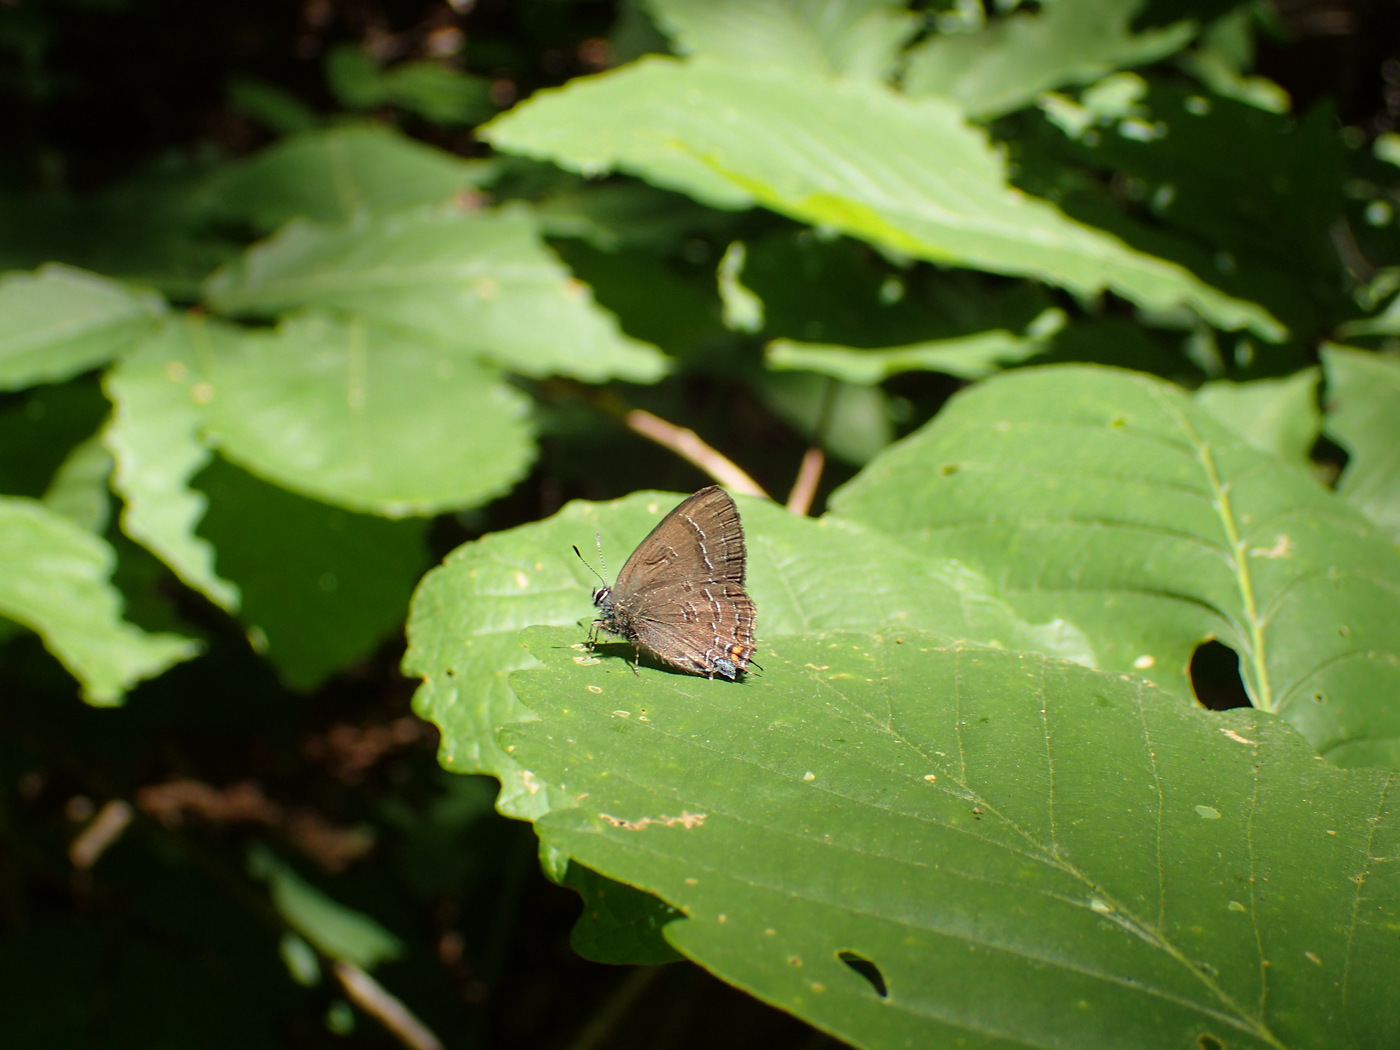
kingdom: Animalia
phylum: Arthropoda
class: Insecta
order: Lepidoptera
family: Lycaenidae
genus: Satyrium
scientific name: Satyrium calanus
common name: Banded hairstreak
